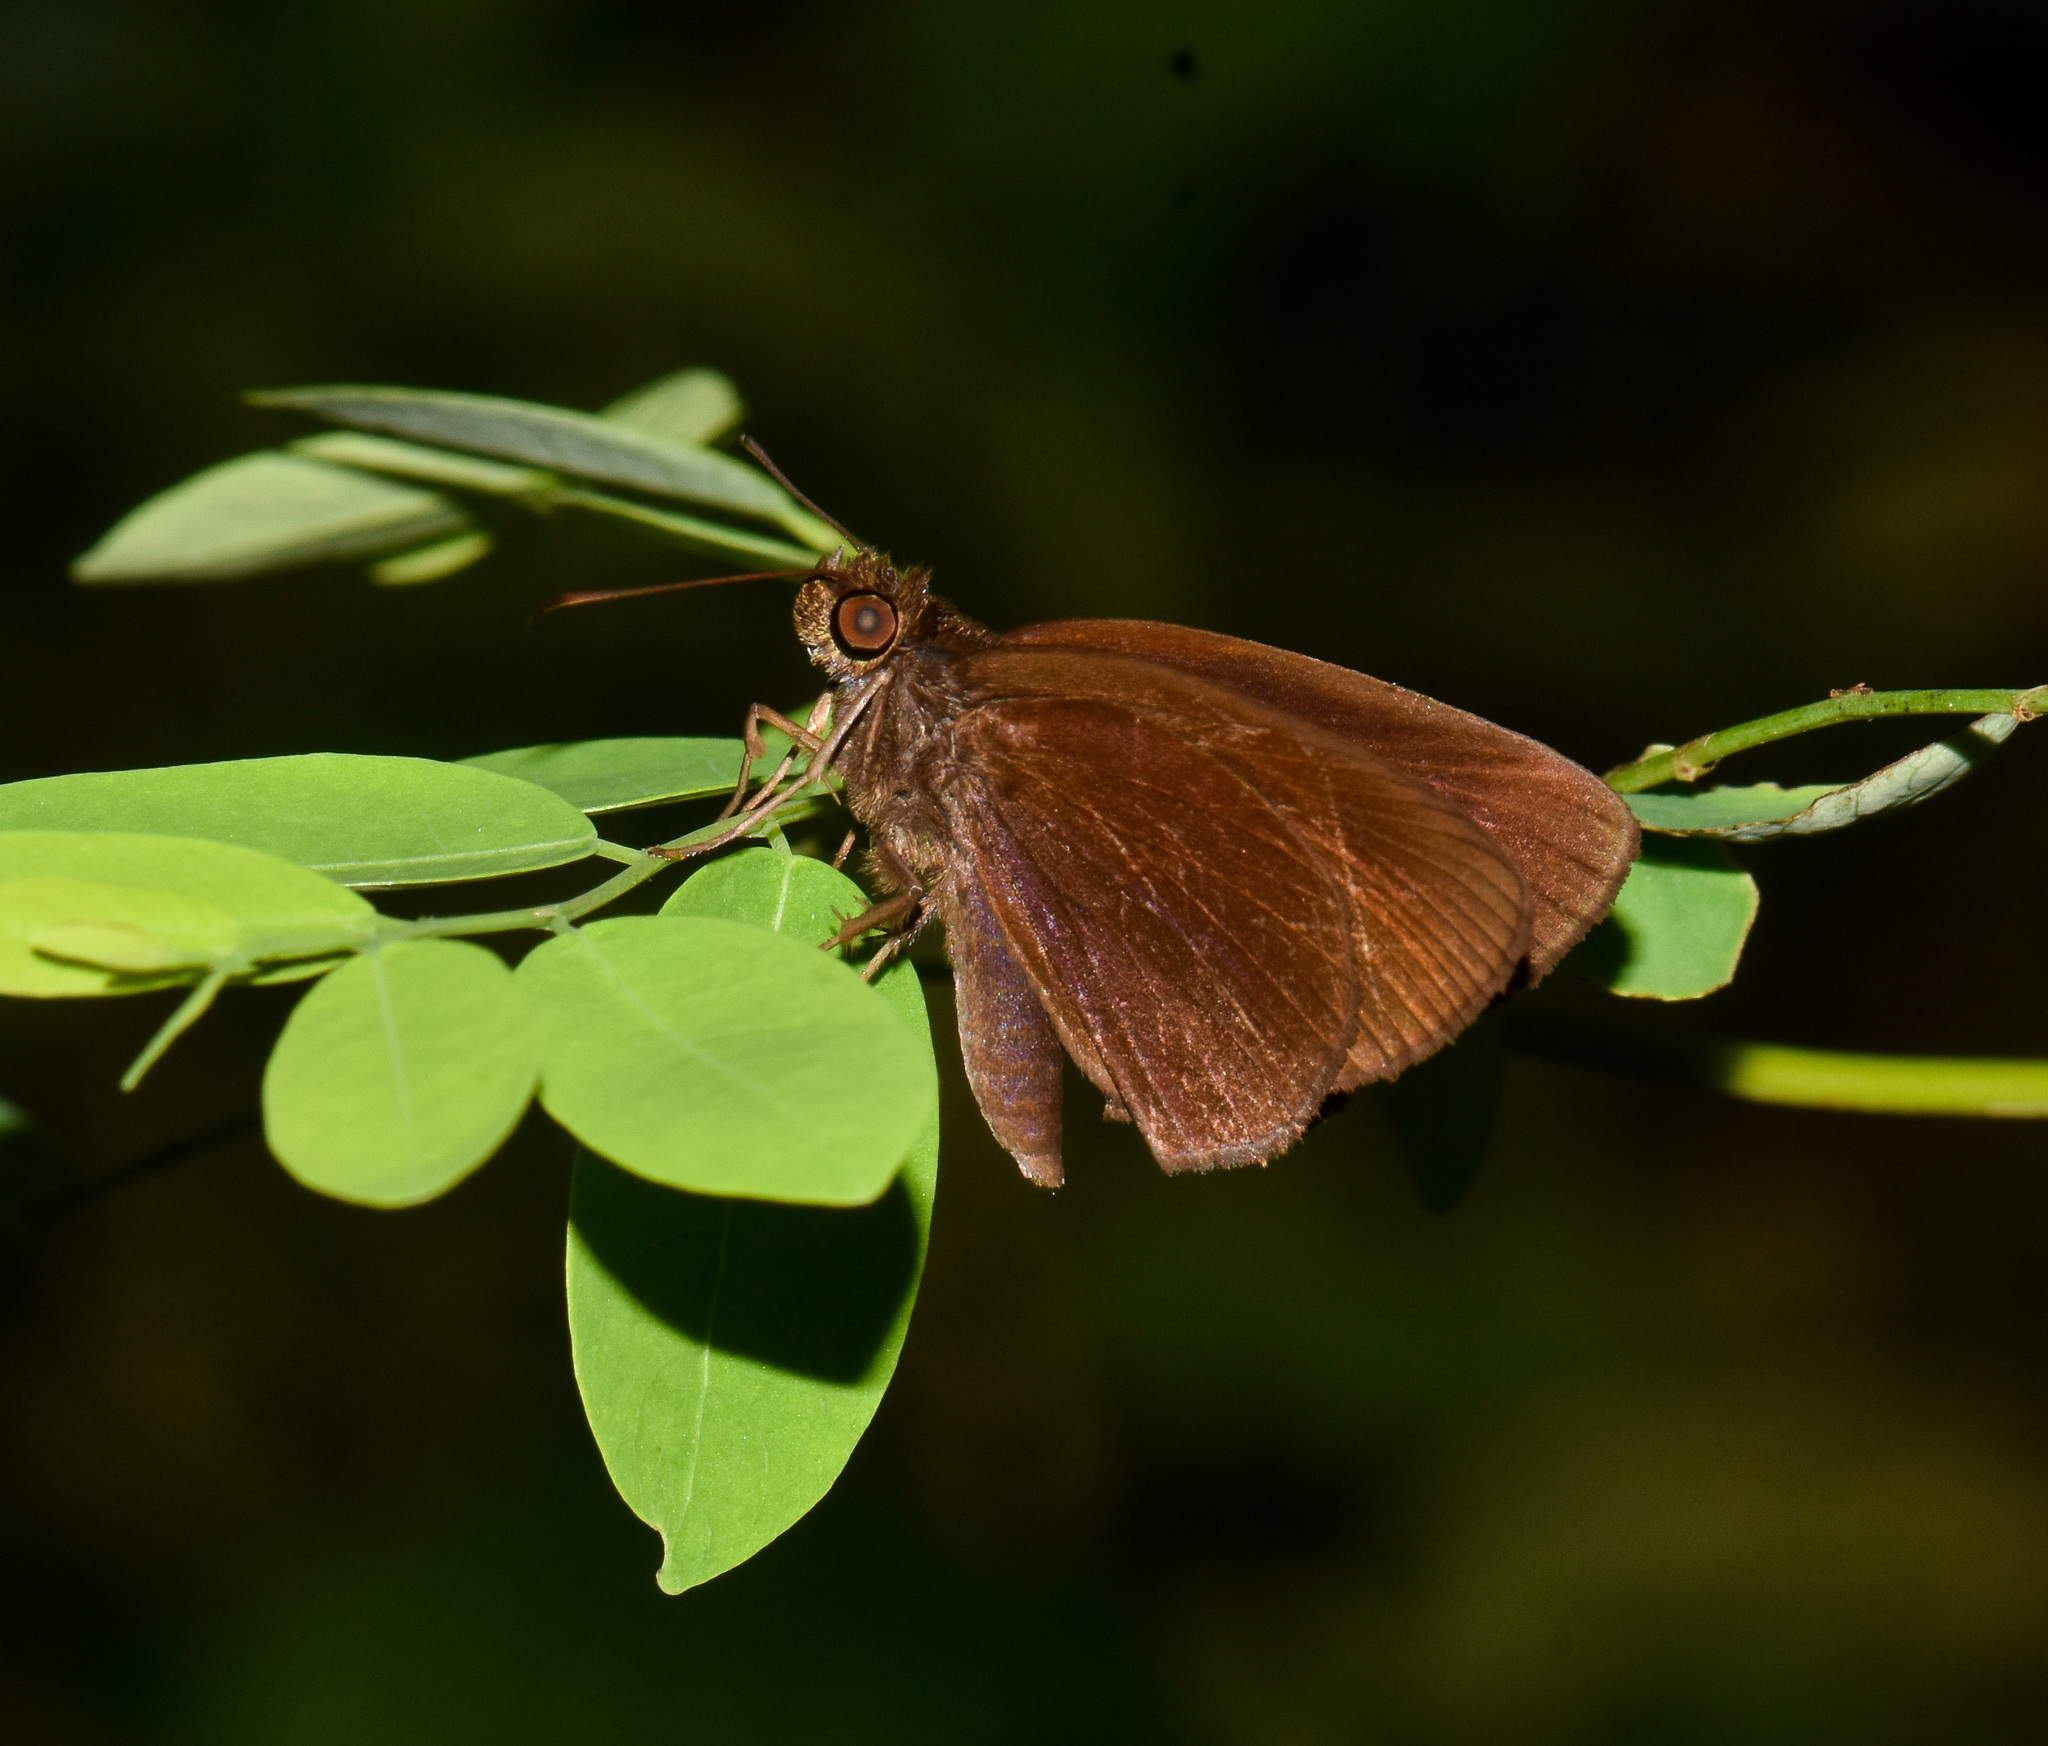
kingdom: Animalia
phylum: Arthropoda
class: Insecta
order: Lepidoptera
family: Hesperiidae
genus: Ancistroides
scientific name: Ancistroides nigrita
